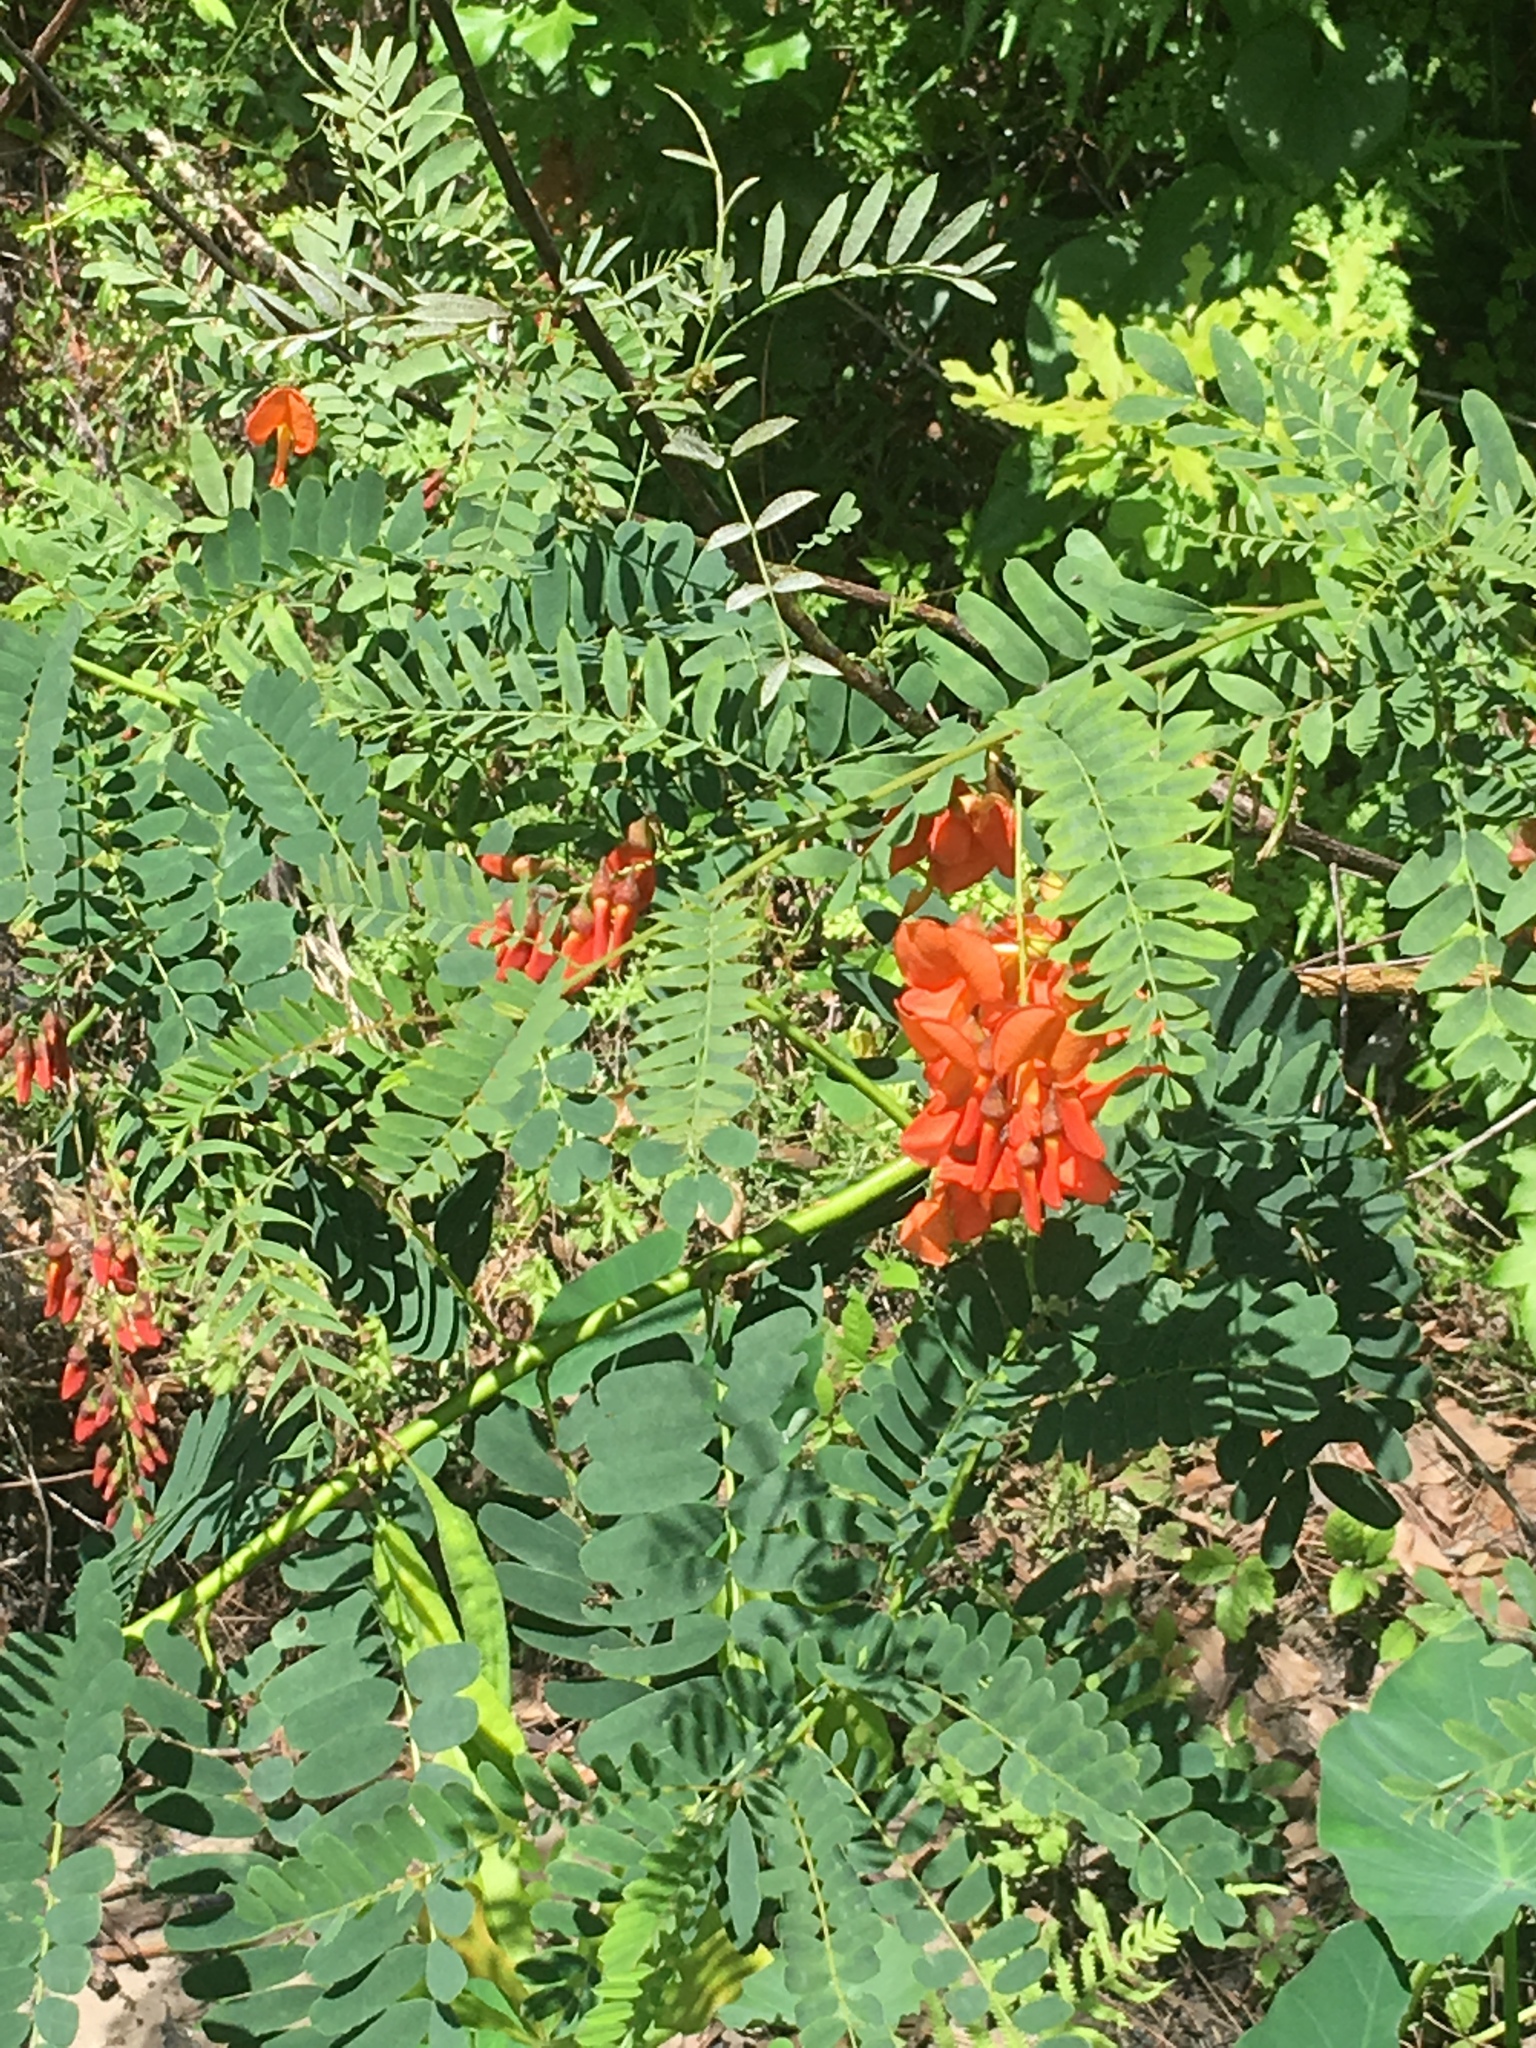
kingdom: Plantae
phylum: Tracheophyta
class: Magnoliopsida
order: Fabales
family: Fabaceae
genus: Sesbania
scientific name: Sesbania punicea
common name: Rattlebox
